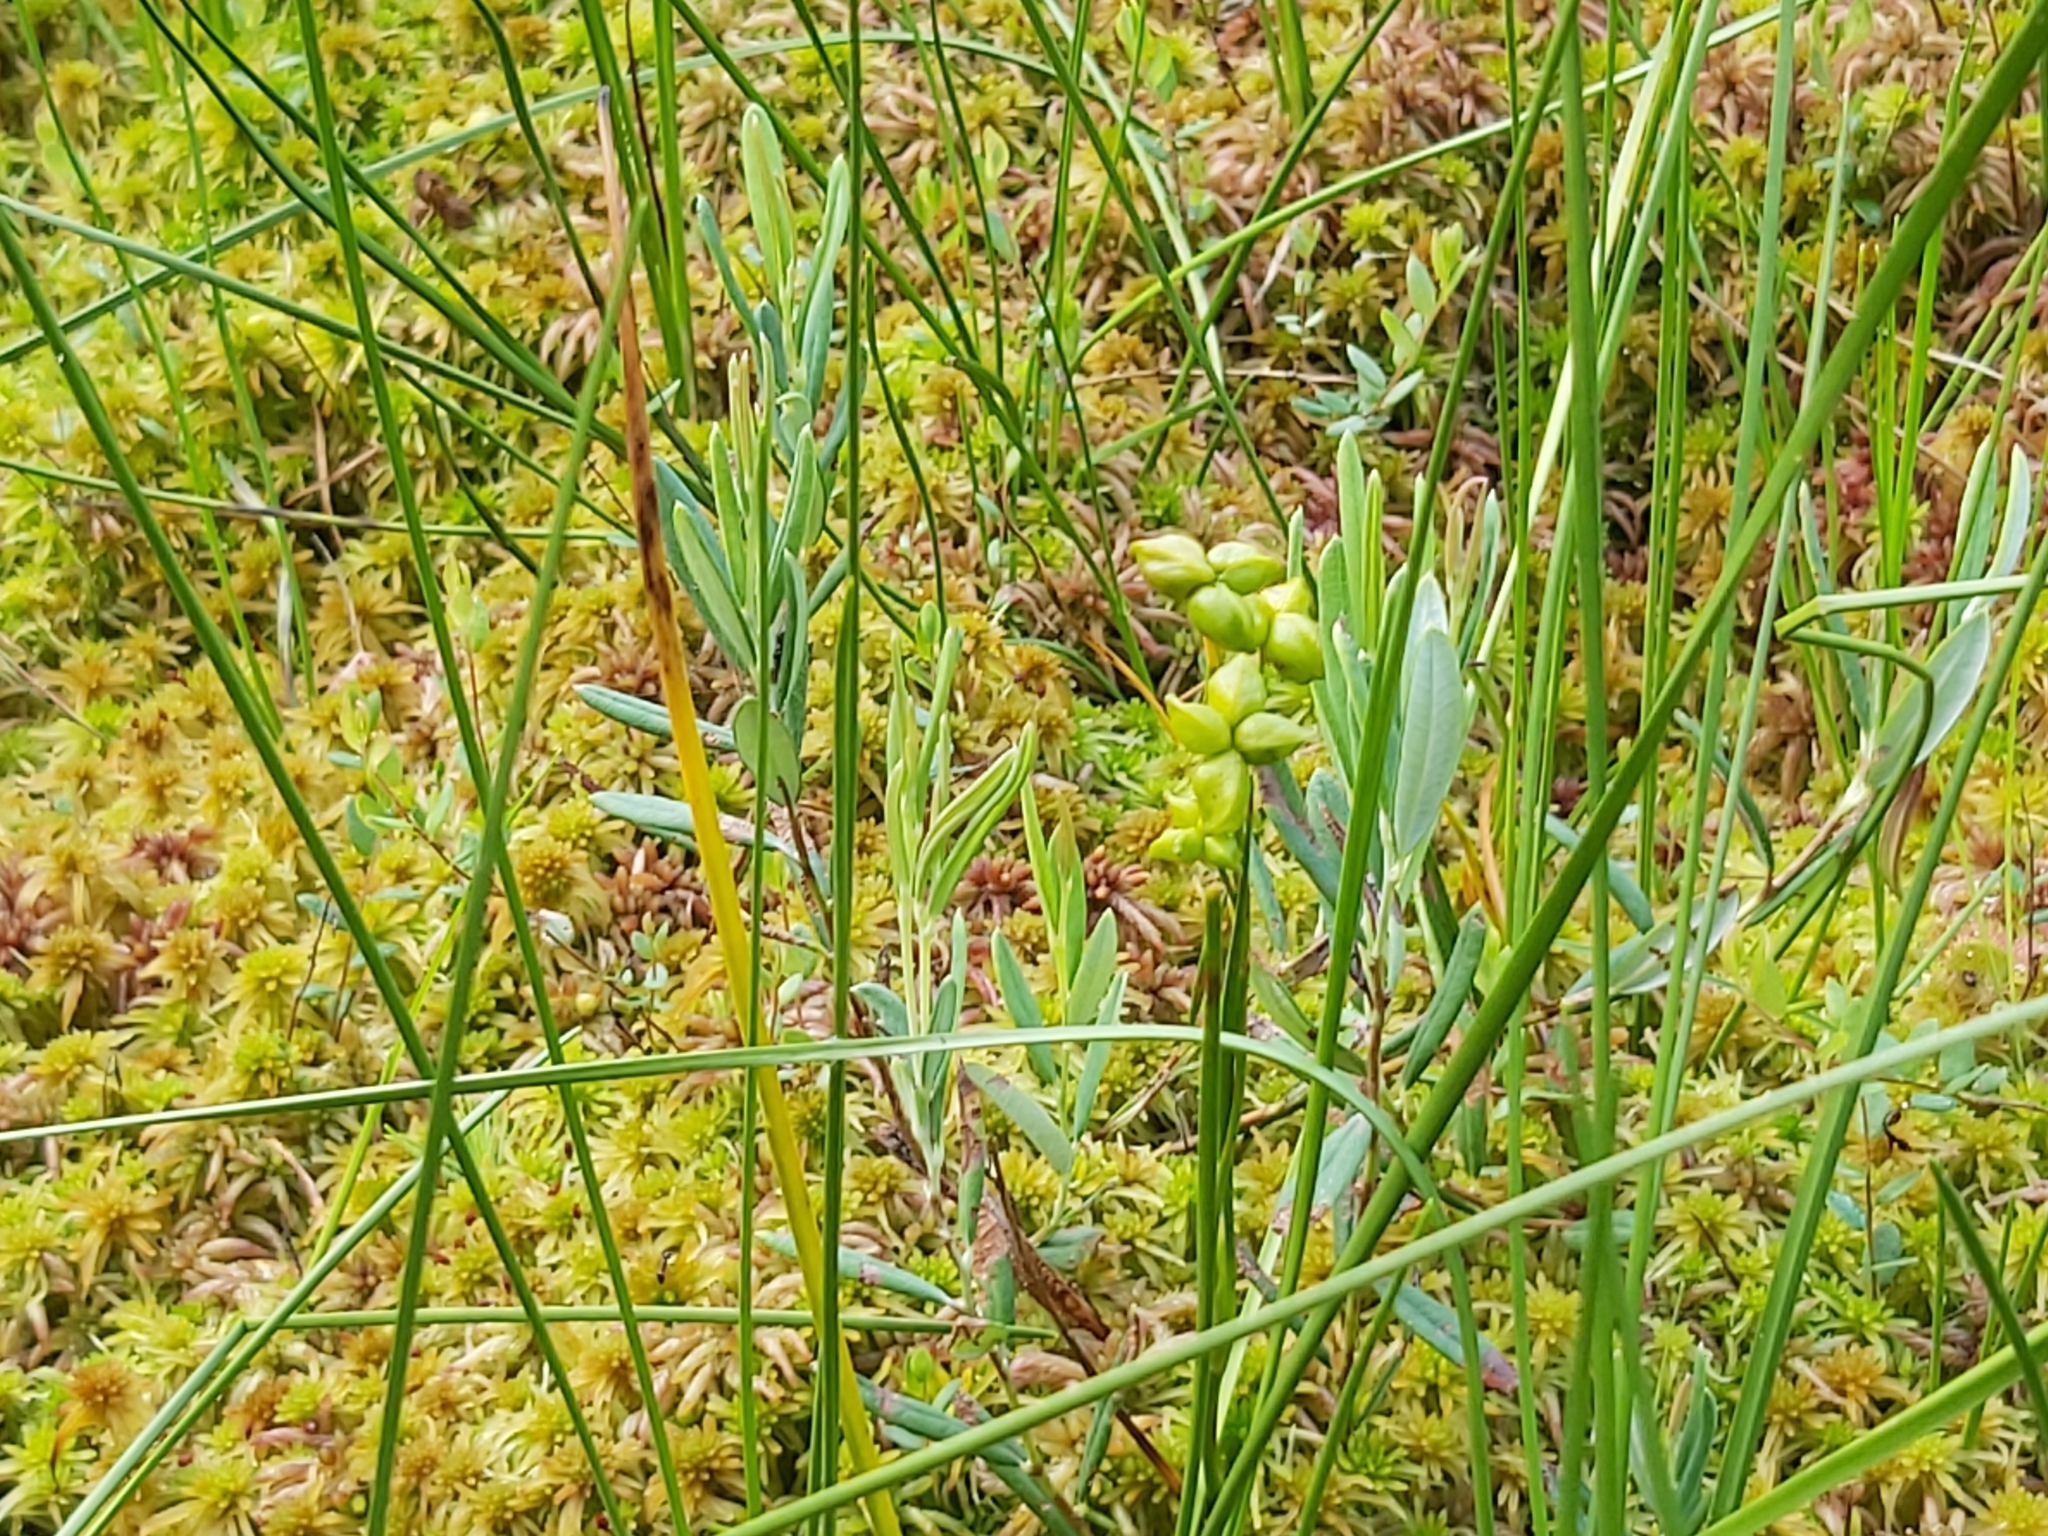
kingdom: Plantae
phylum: Tracheophyta
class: Liliopsida
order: Alismatales
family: Scheuchzeriaceae
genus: Scheuchzeria
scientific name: Scheuchzeria palustris
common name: Rannoch-rush
